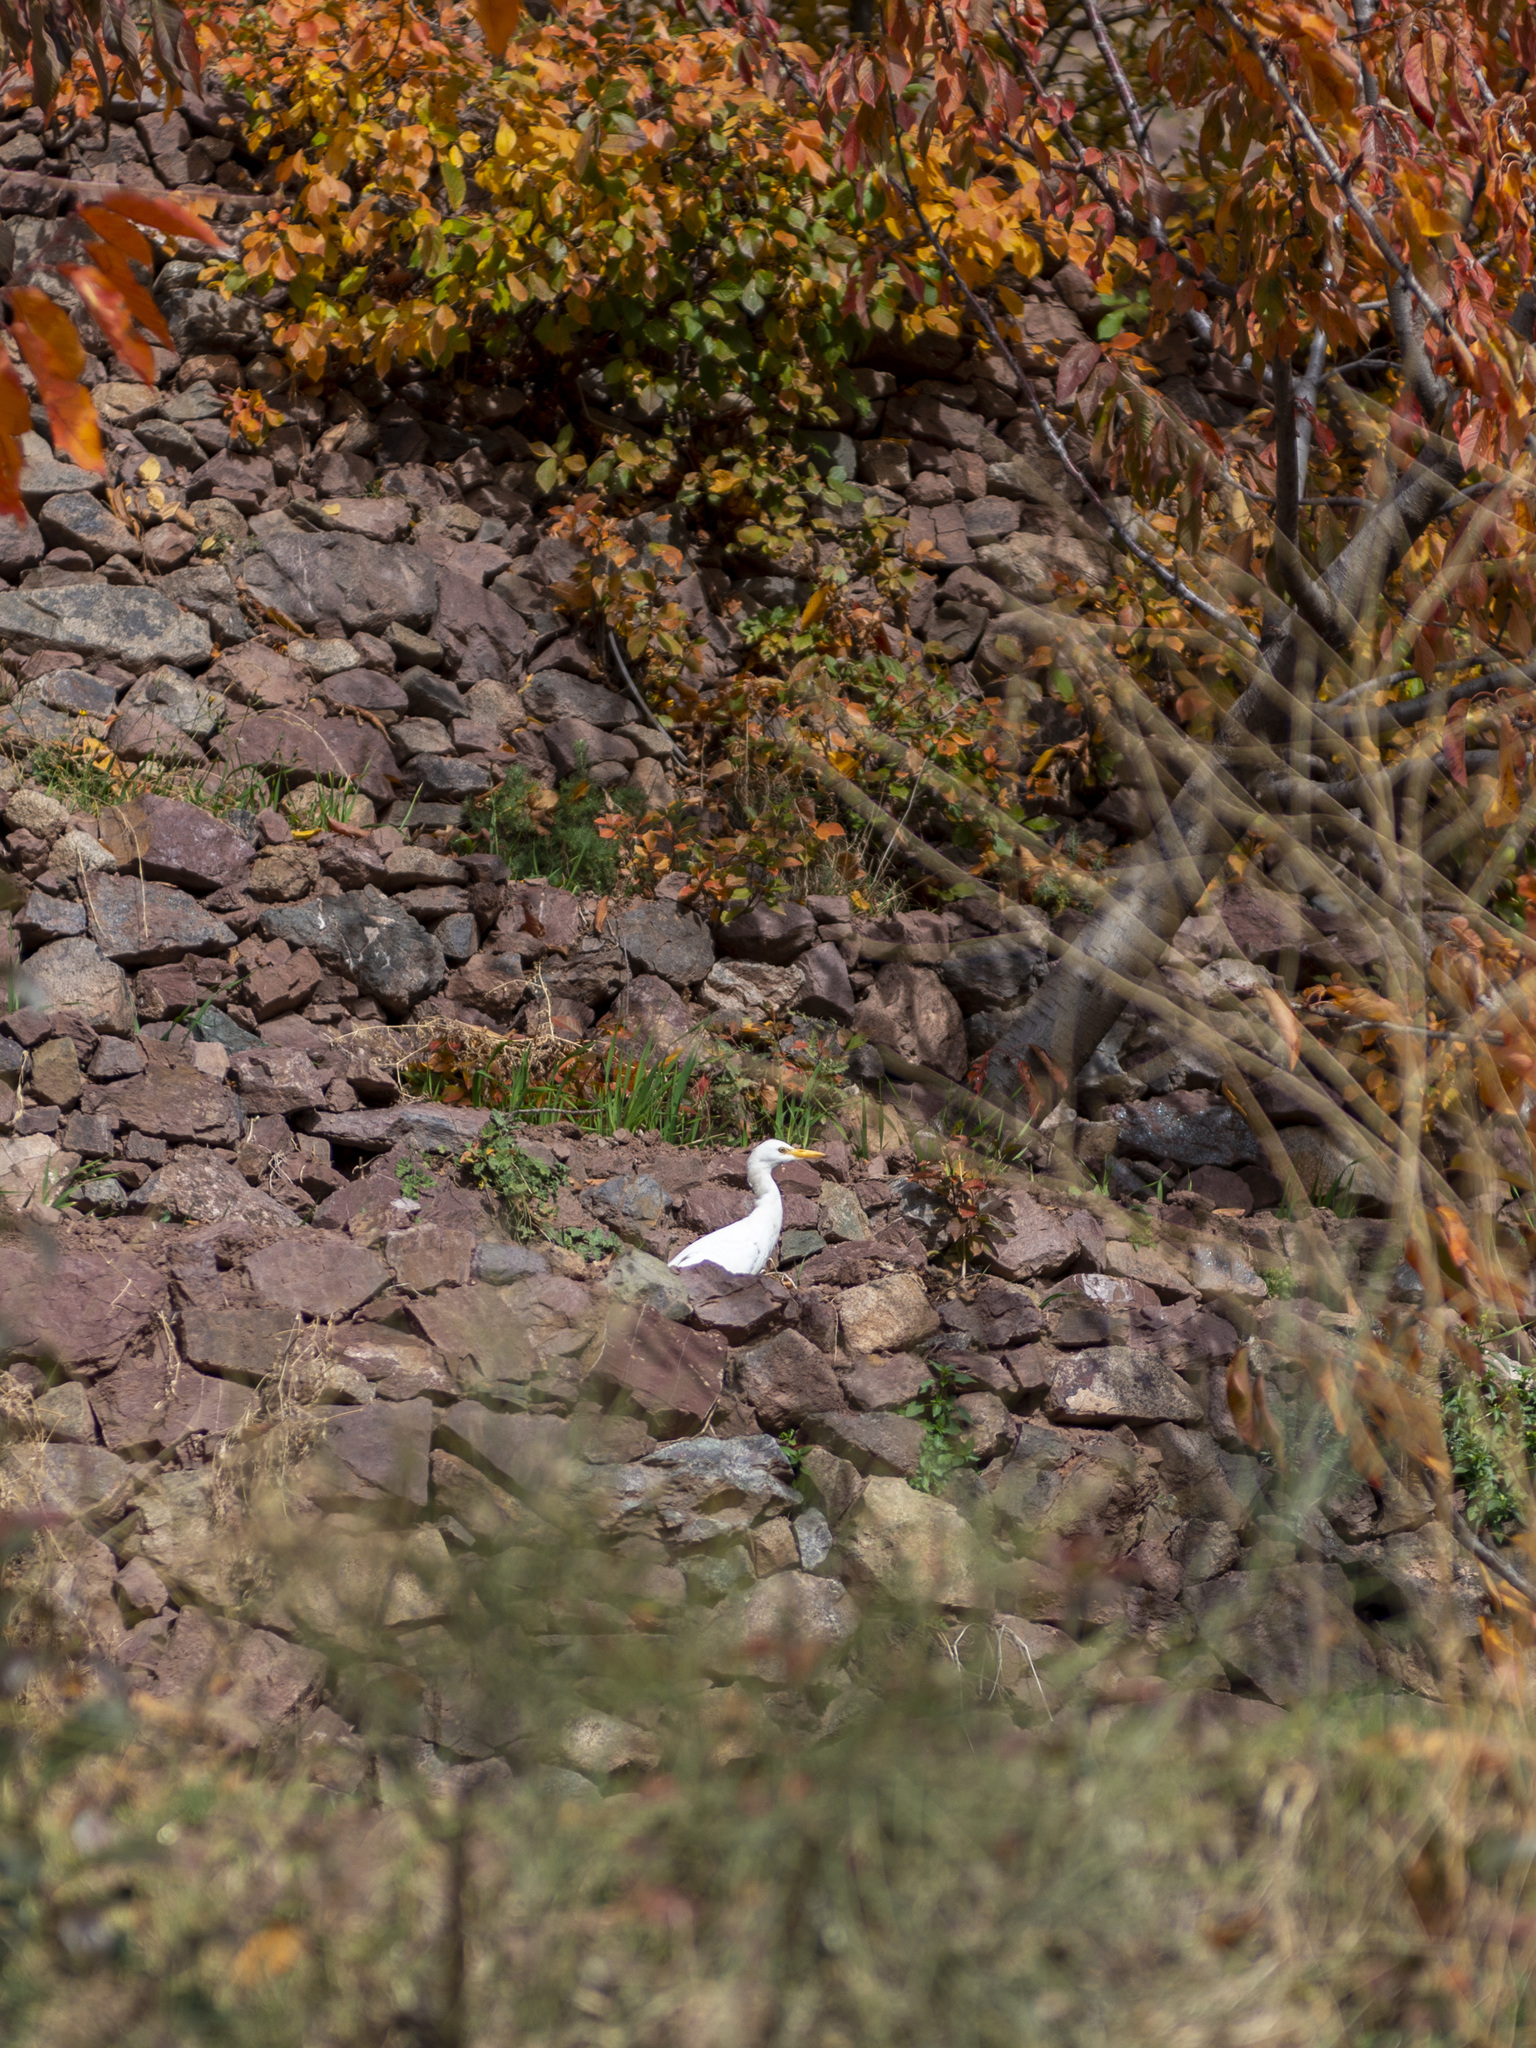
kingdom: Animalia
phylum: Chordata
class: Aves
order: Pelecaniformes
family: Ardeidae
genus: Bubulcus
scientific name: Bubulcus ibis
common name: Cattle egret
